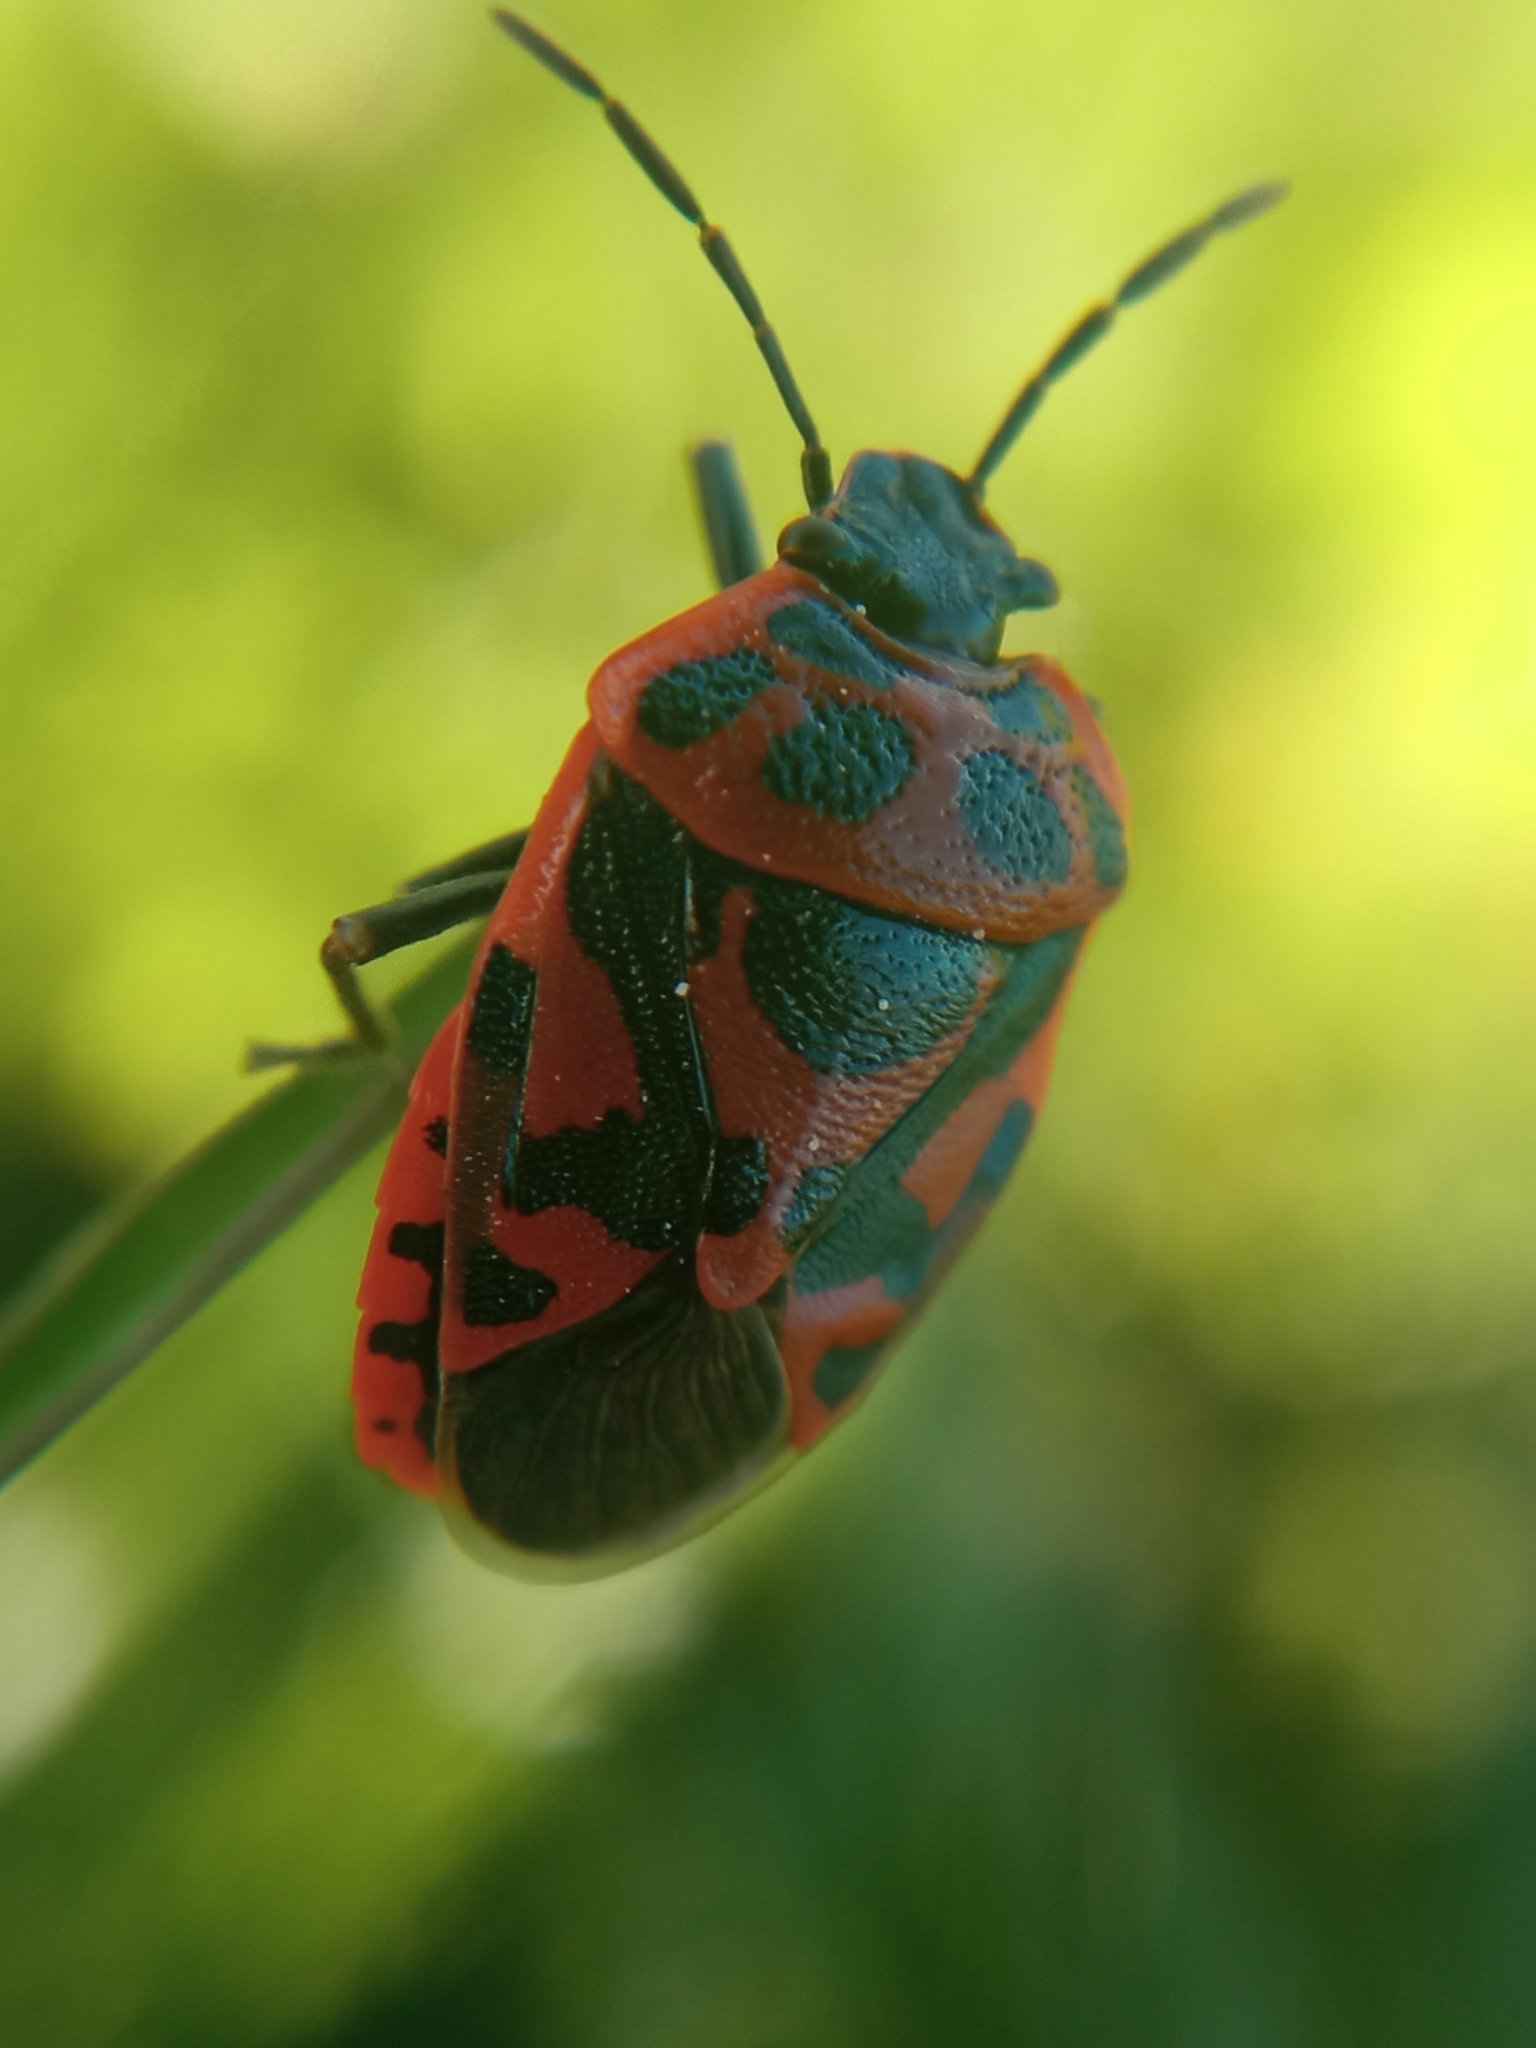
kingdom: Animalia
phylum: Arthropoda
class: Insecta
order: Hemiptera
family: Pentatomidae
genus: Eurydema
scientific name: Eurydema ornata
